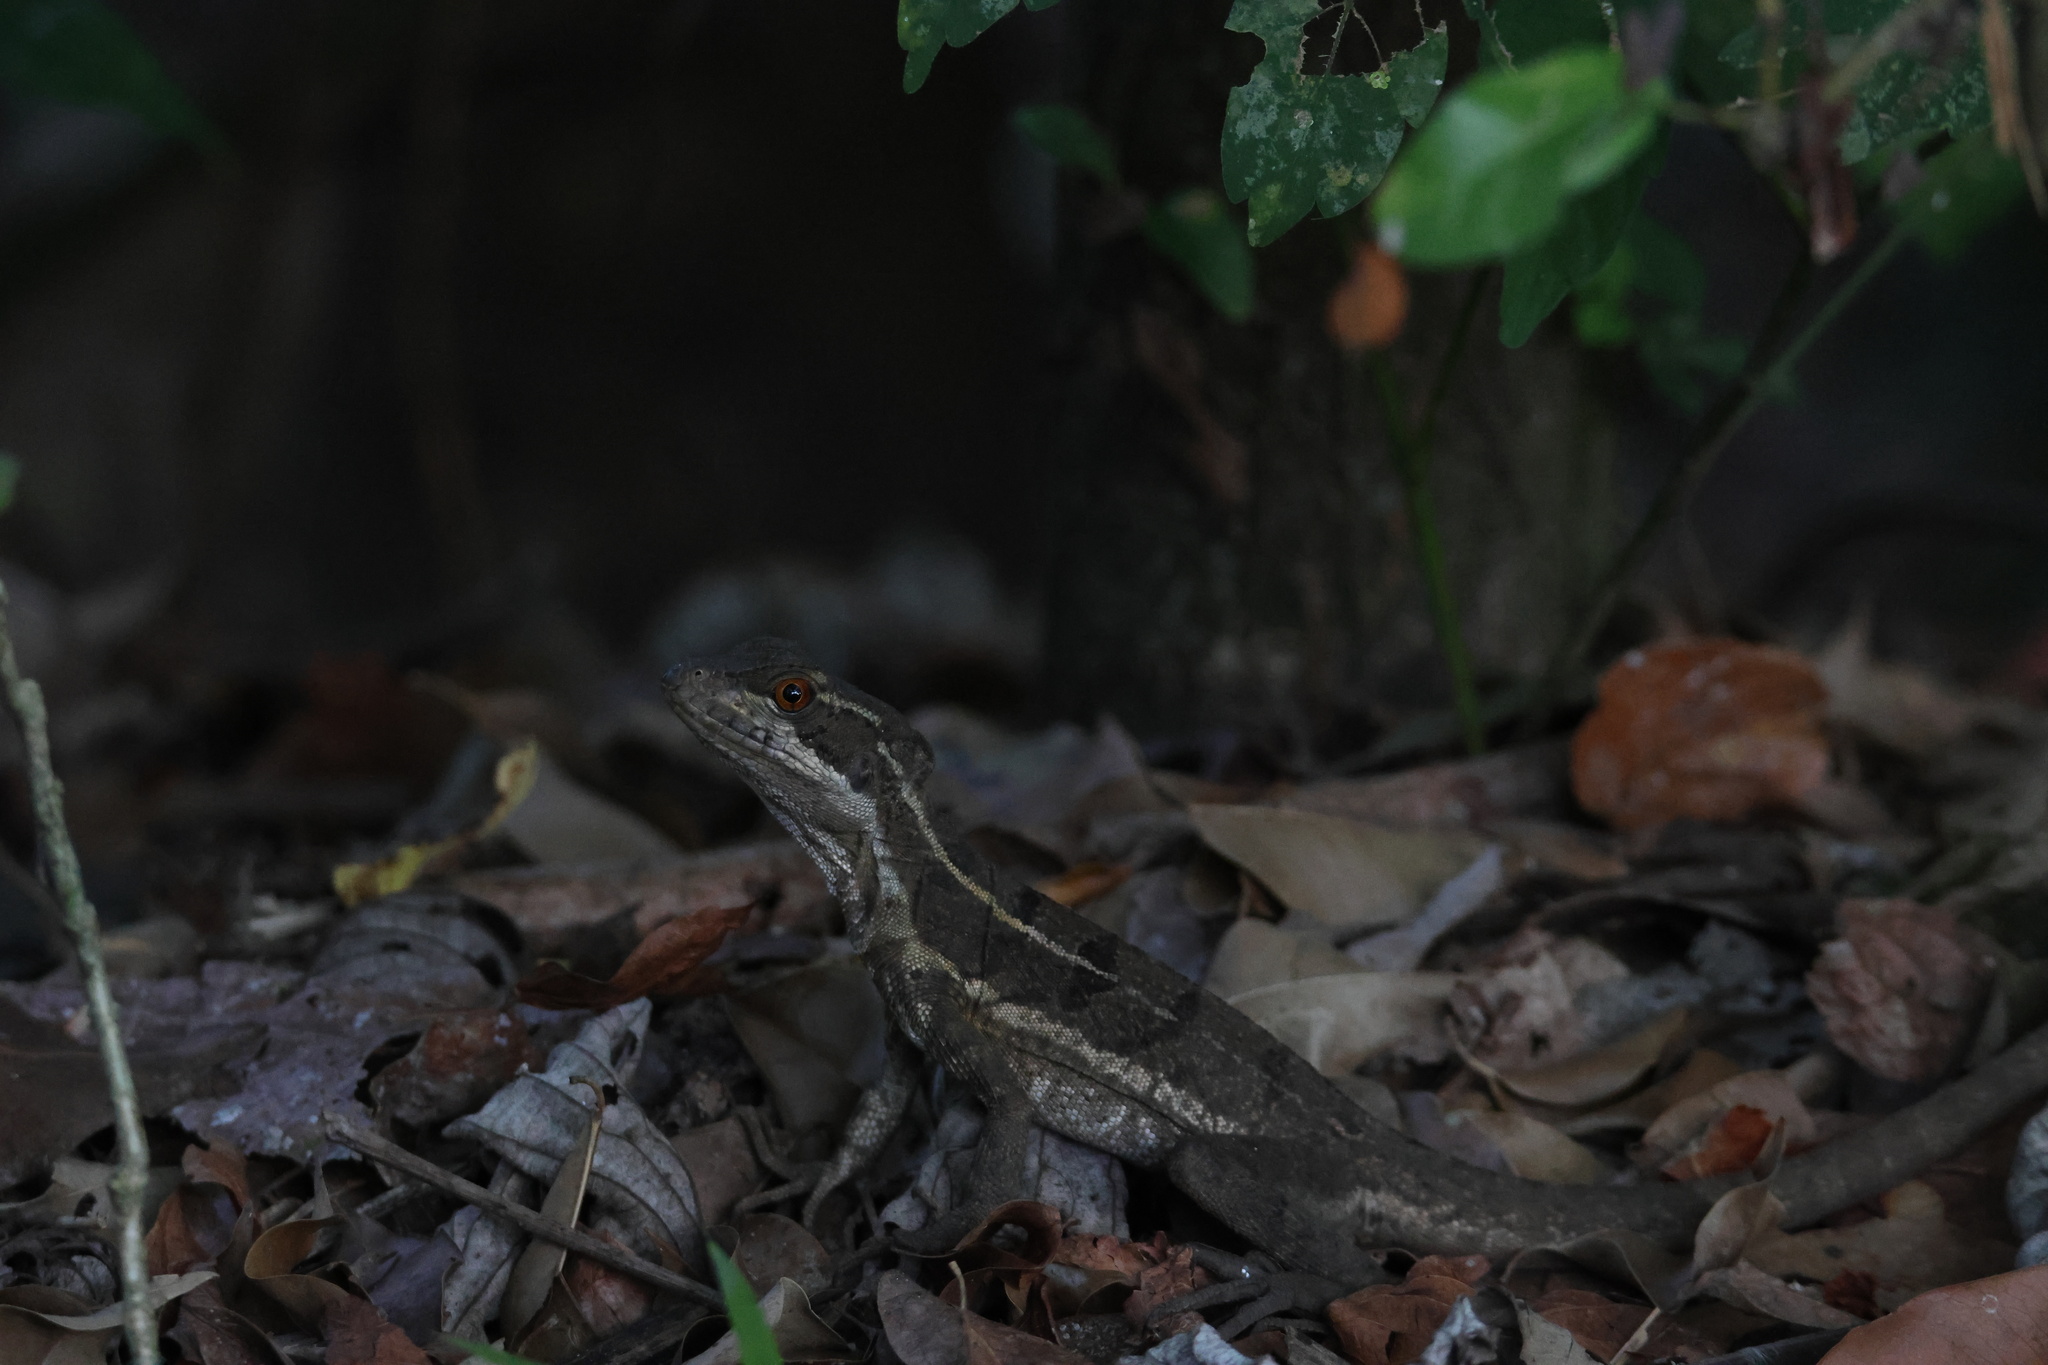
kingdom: Animalia
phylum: Chordata
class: Squamata
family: Corytophanidae
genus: Basiliscus
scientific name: Basiliscus basiliscus
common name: Common basilisk
